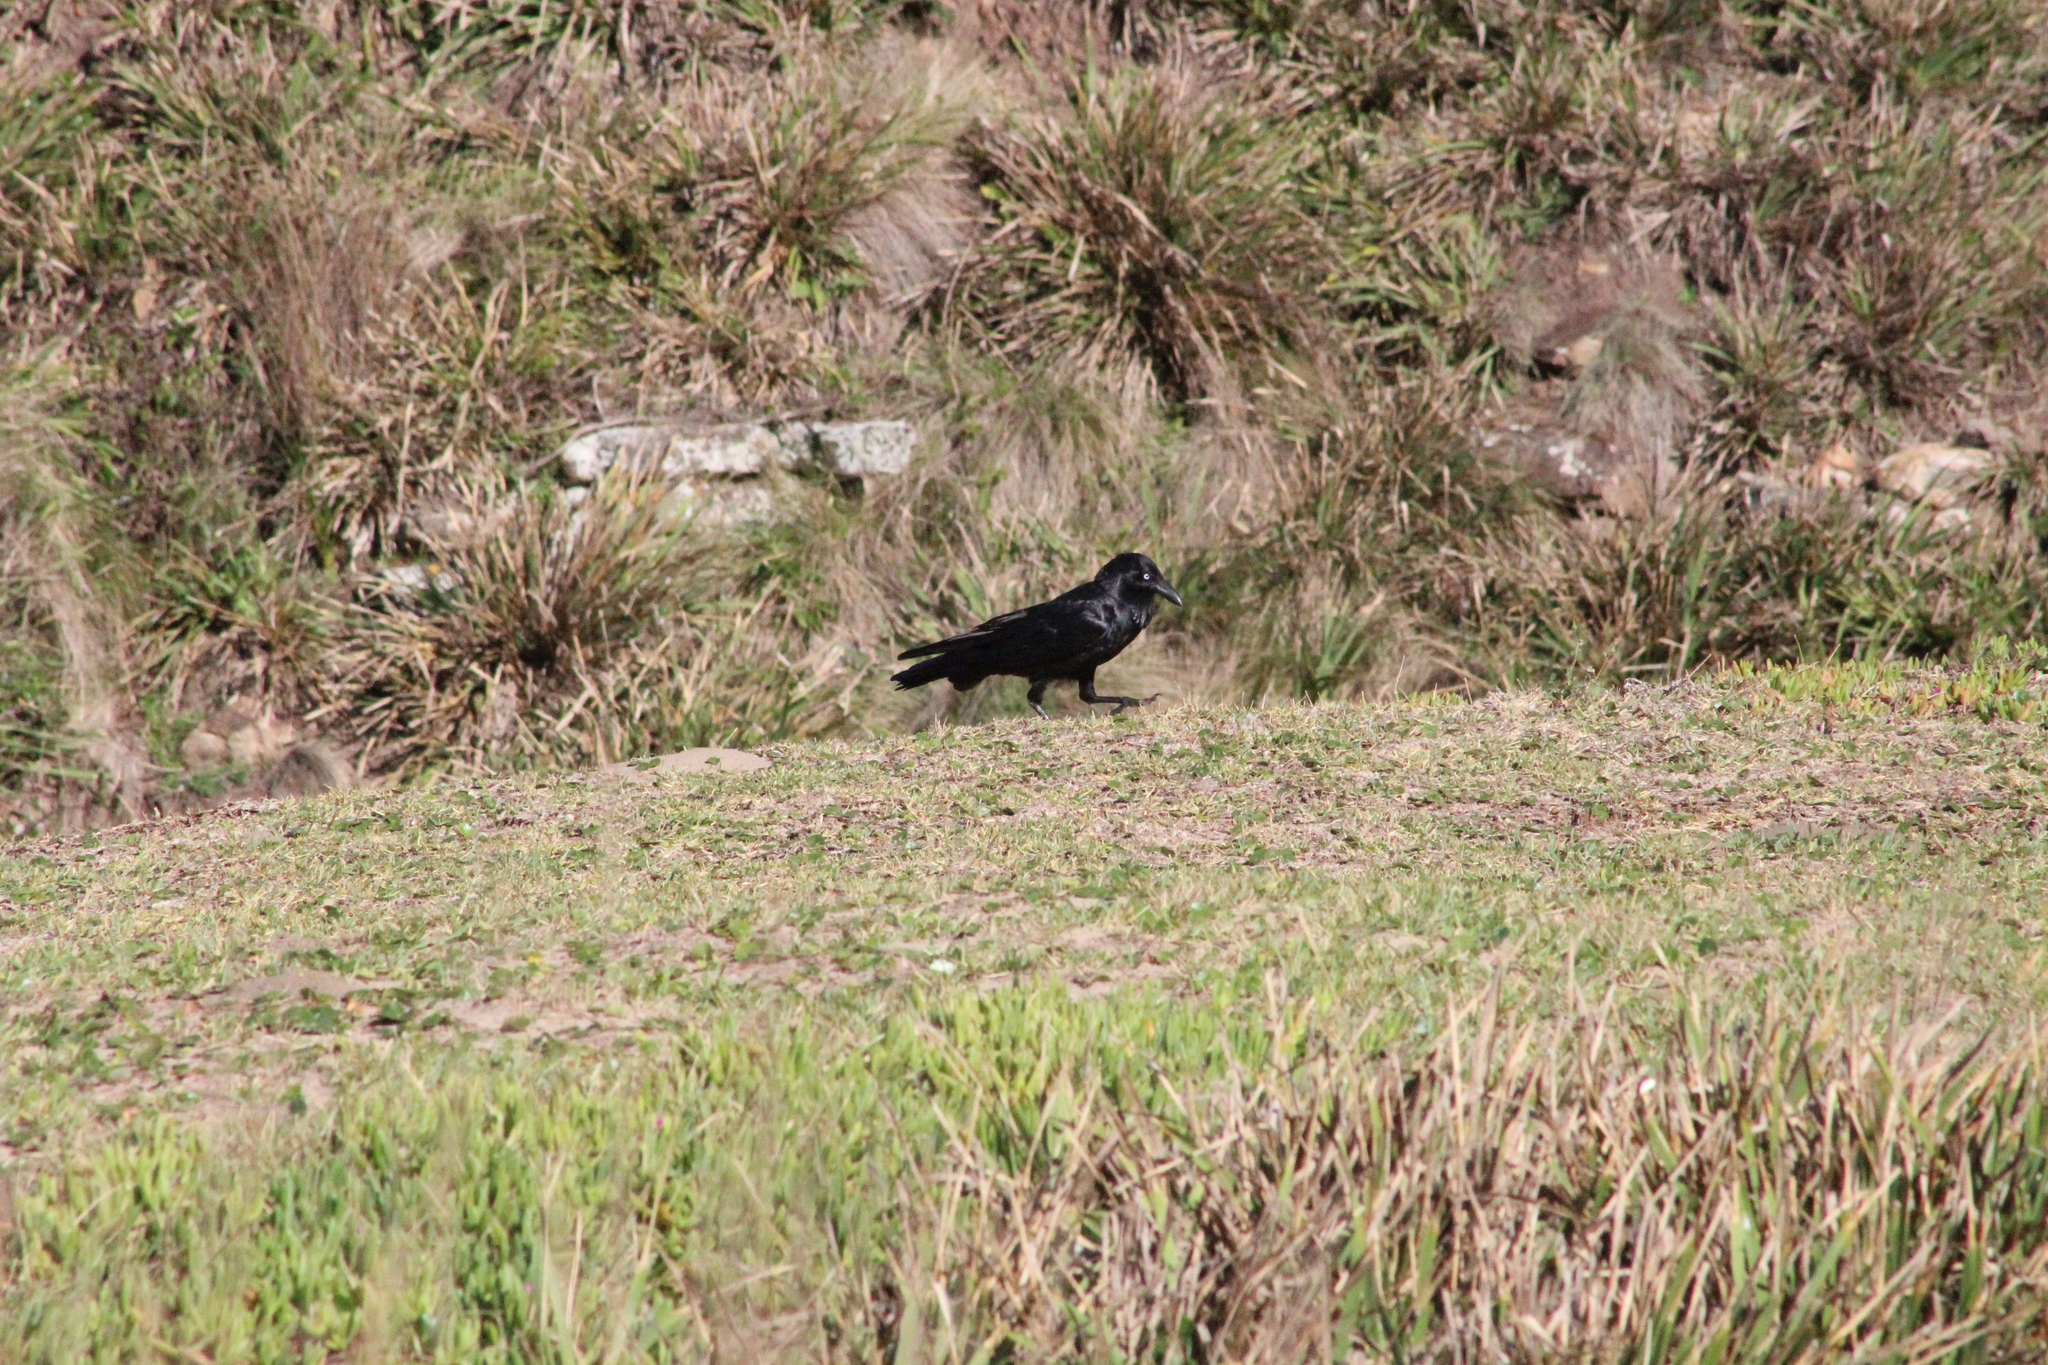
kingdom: Animalia
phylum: Chordata
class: Aves
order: Passeriformes
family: Corvidae
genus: Corvus
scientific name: Corvus coronoides
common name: Australian raven
